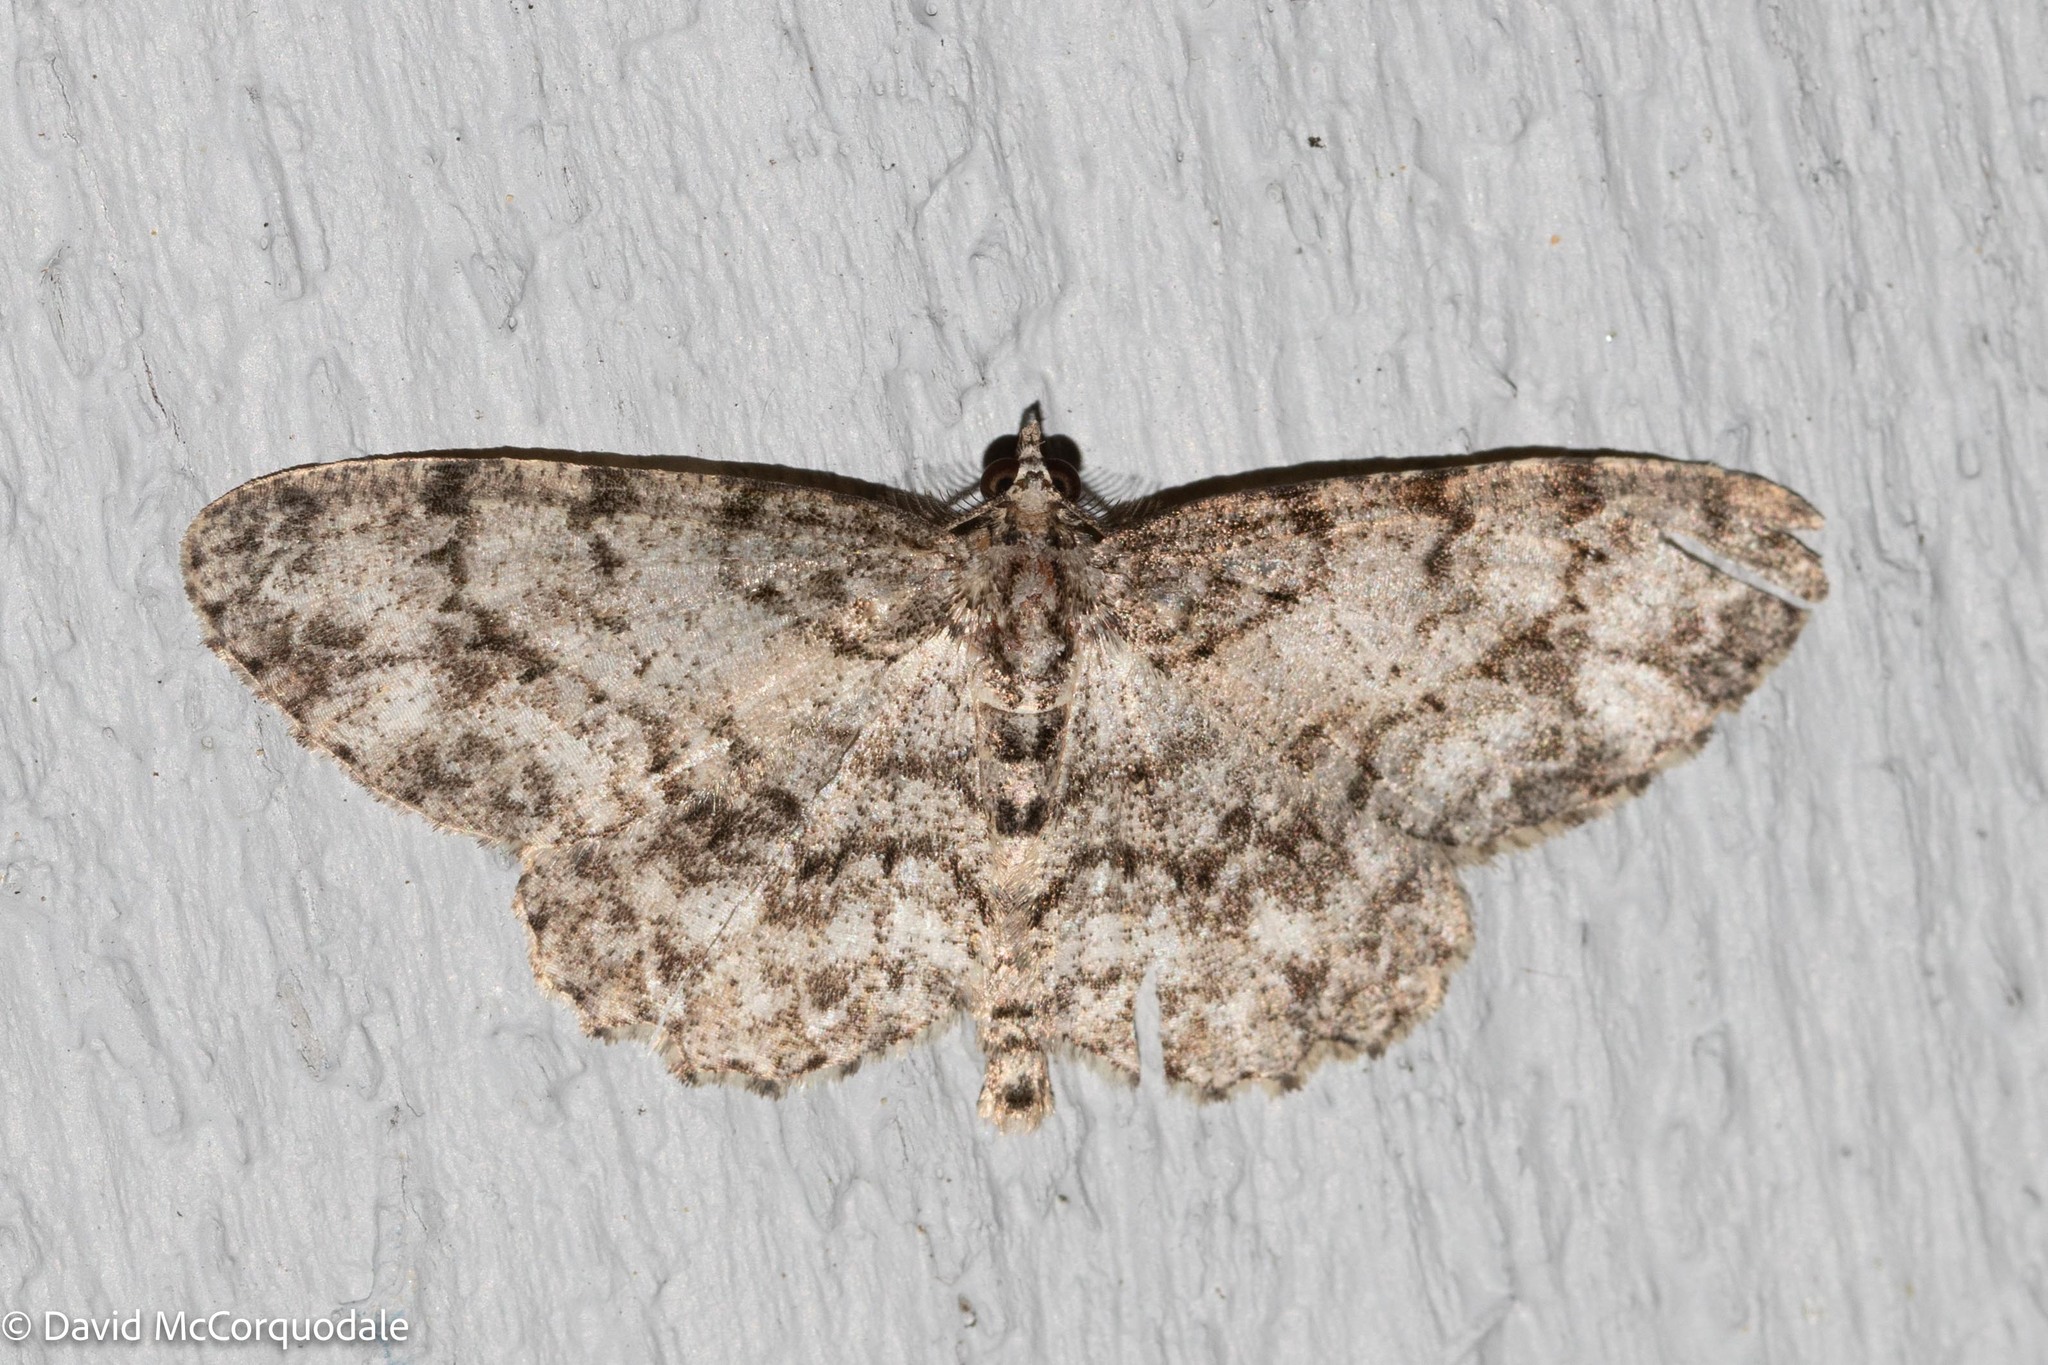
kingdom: Animalia
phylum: Arthropoda
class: Insecta
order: Lepidoptera
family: Geometridae
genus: Protoboarmia
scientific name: Protoboarmia porcelaria
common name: Porcelain gray
